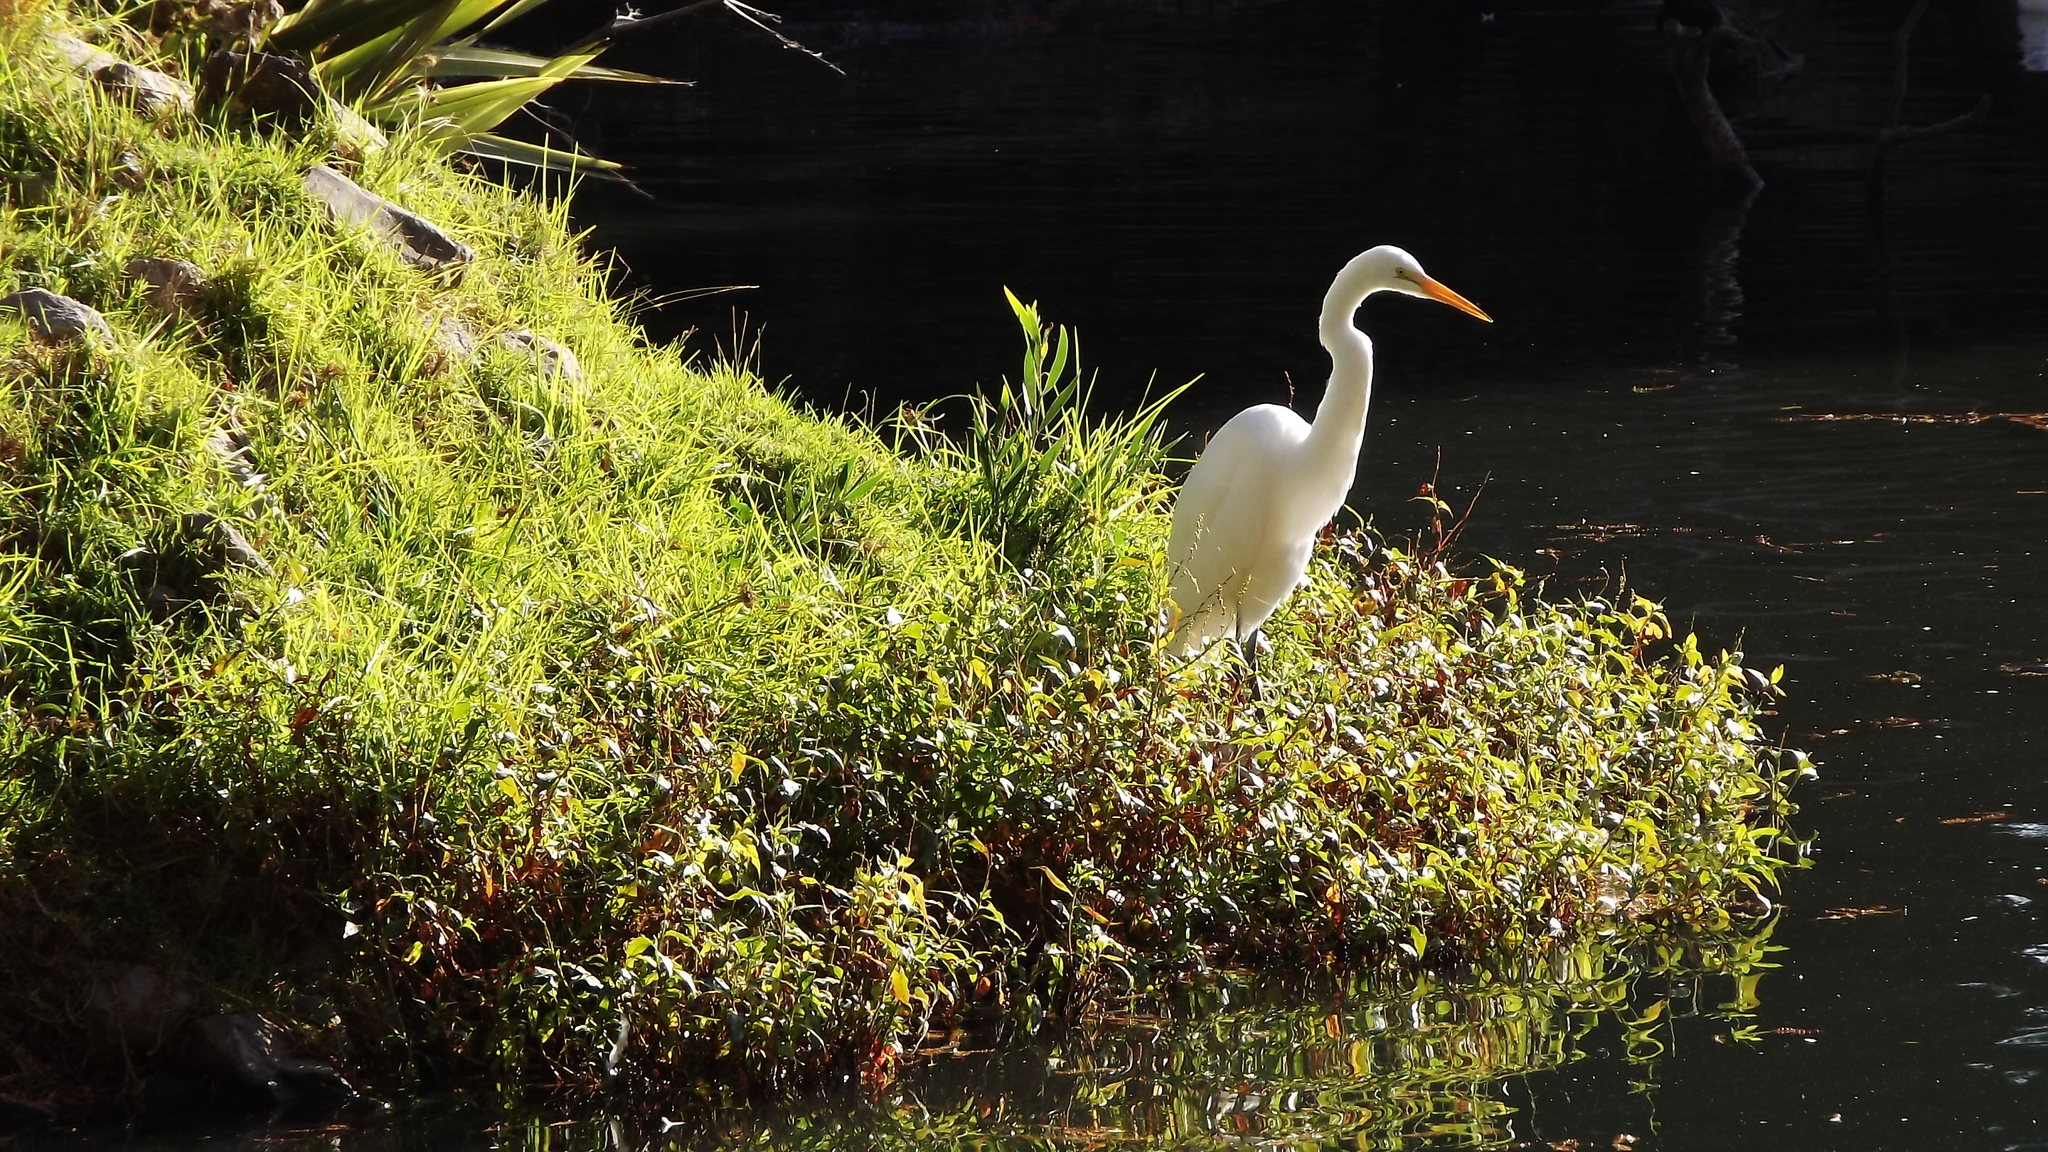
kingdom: Animalia
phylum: Chordata
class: Aves
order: Pelecaniformes
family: Ardeidae
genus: Ardea
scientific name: Ardea alba
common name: Great egret
